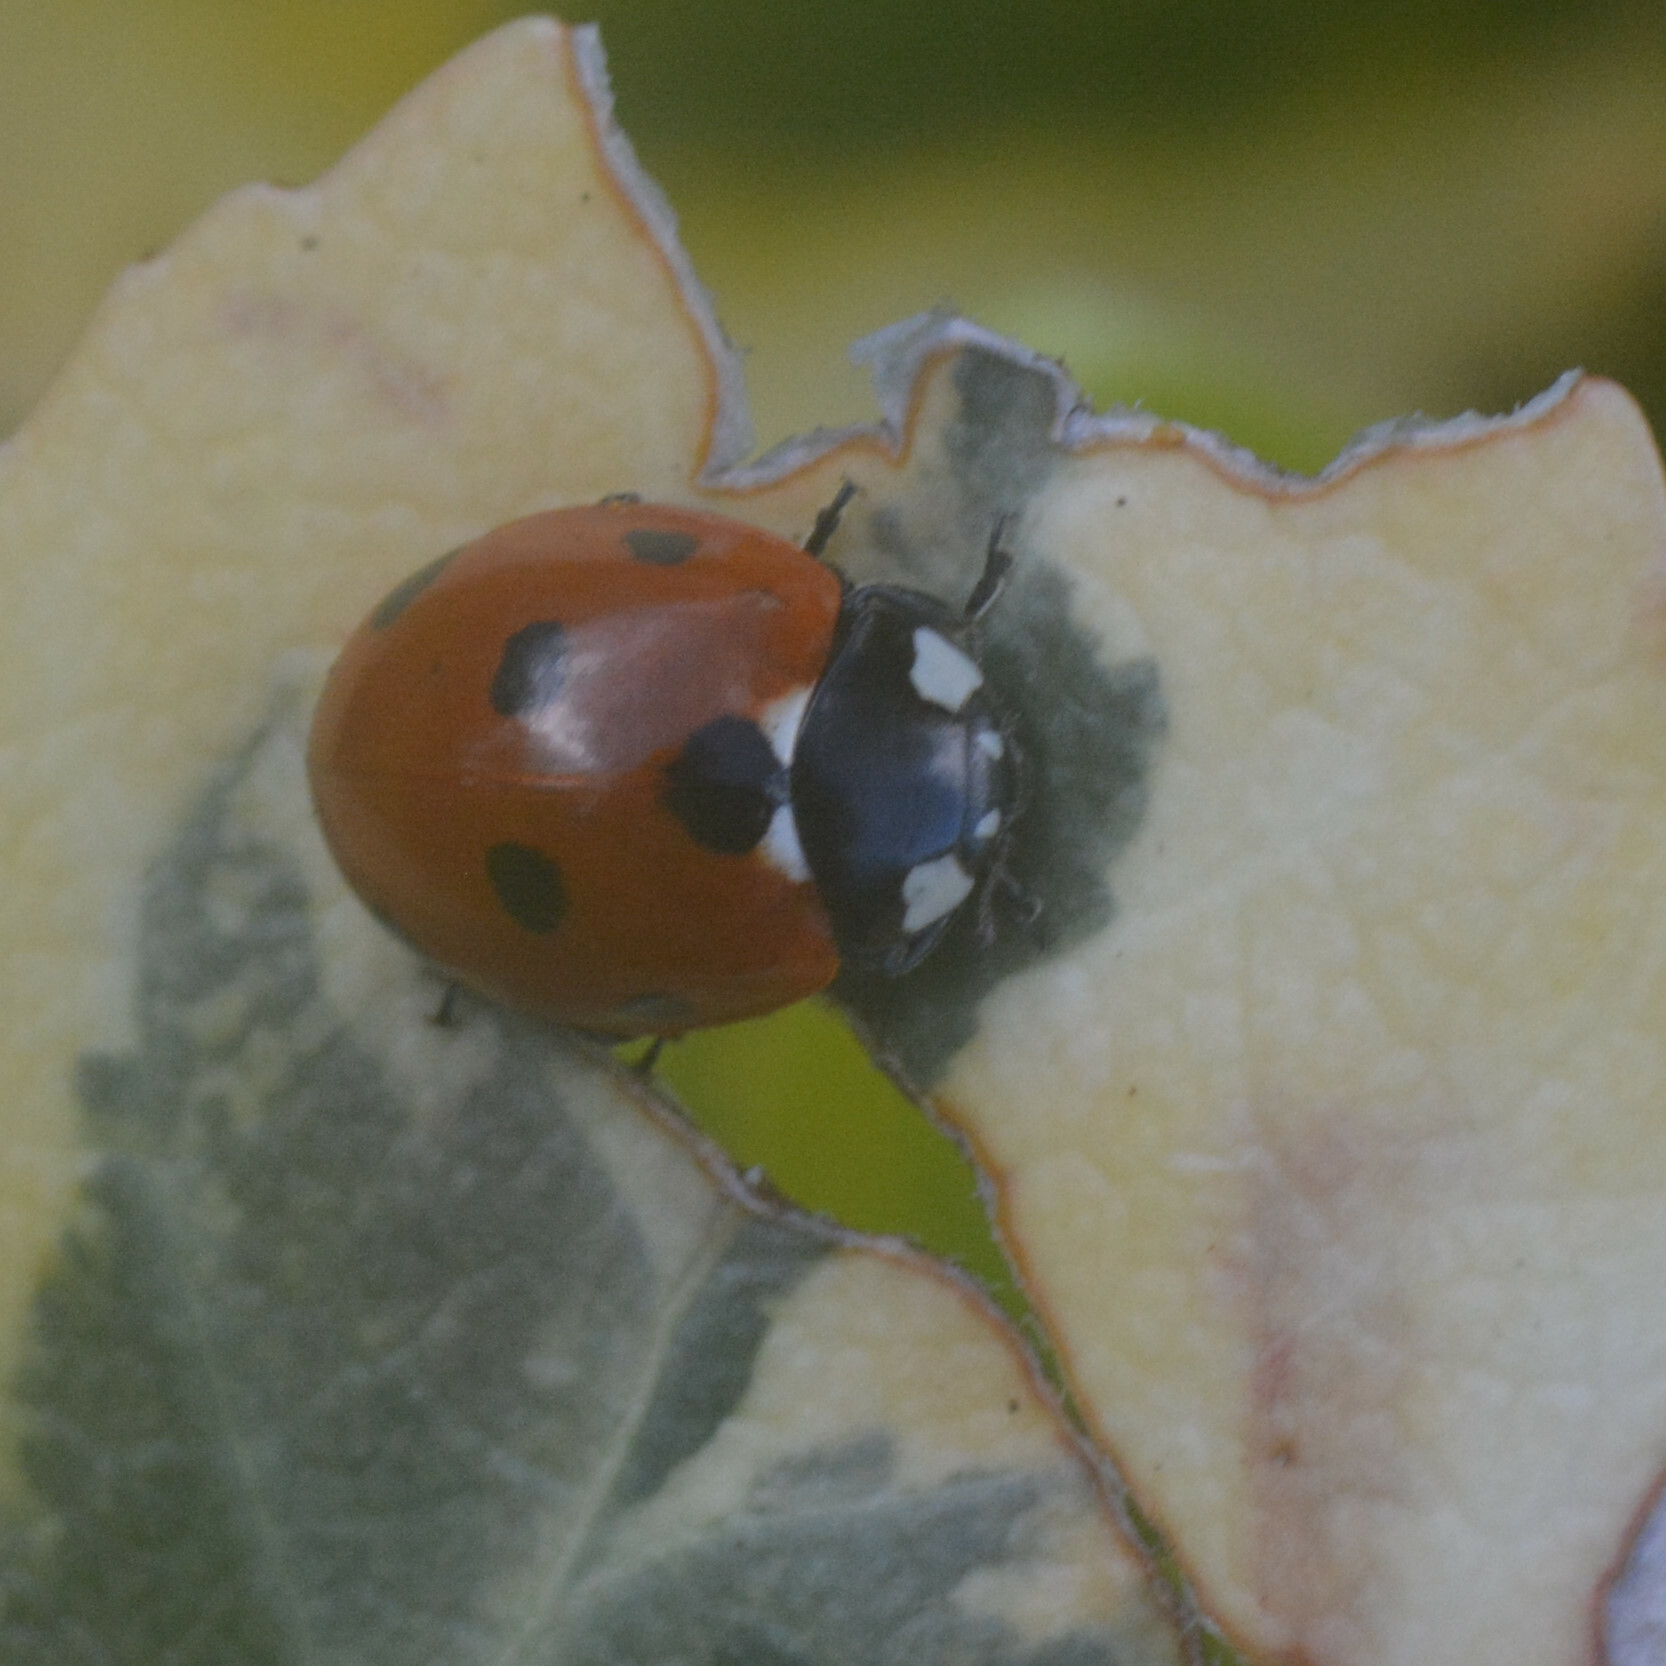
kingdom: Animalia
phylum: Arthropoda
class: Insecta
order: Coleoptera
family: Coccinellidae
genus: Coccinella
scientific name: Coccinella septempunctata
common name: Sevenspotted lady beetle
